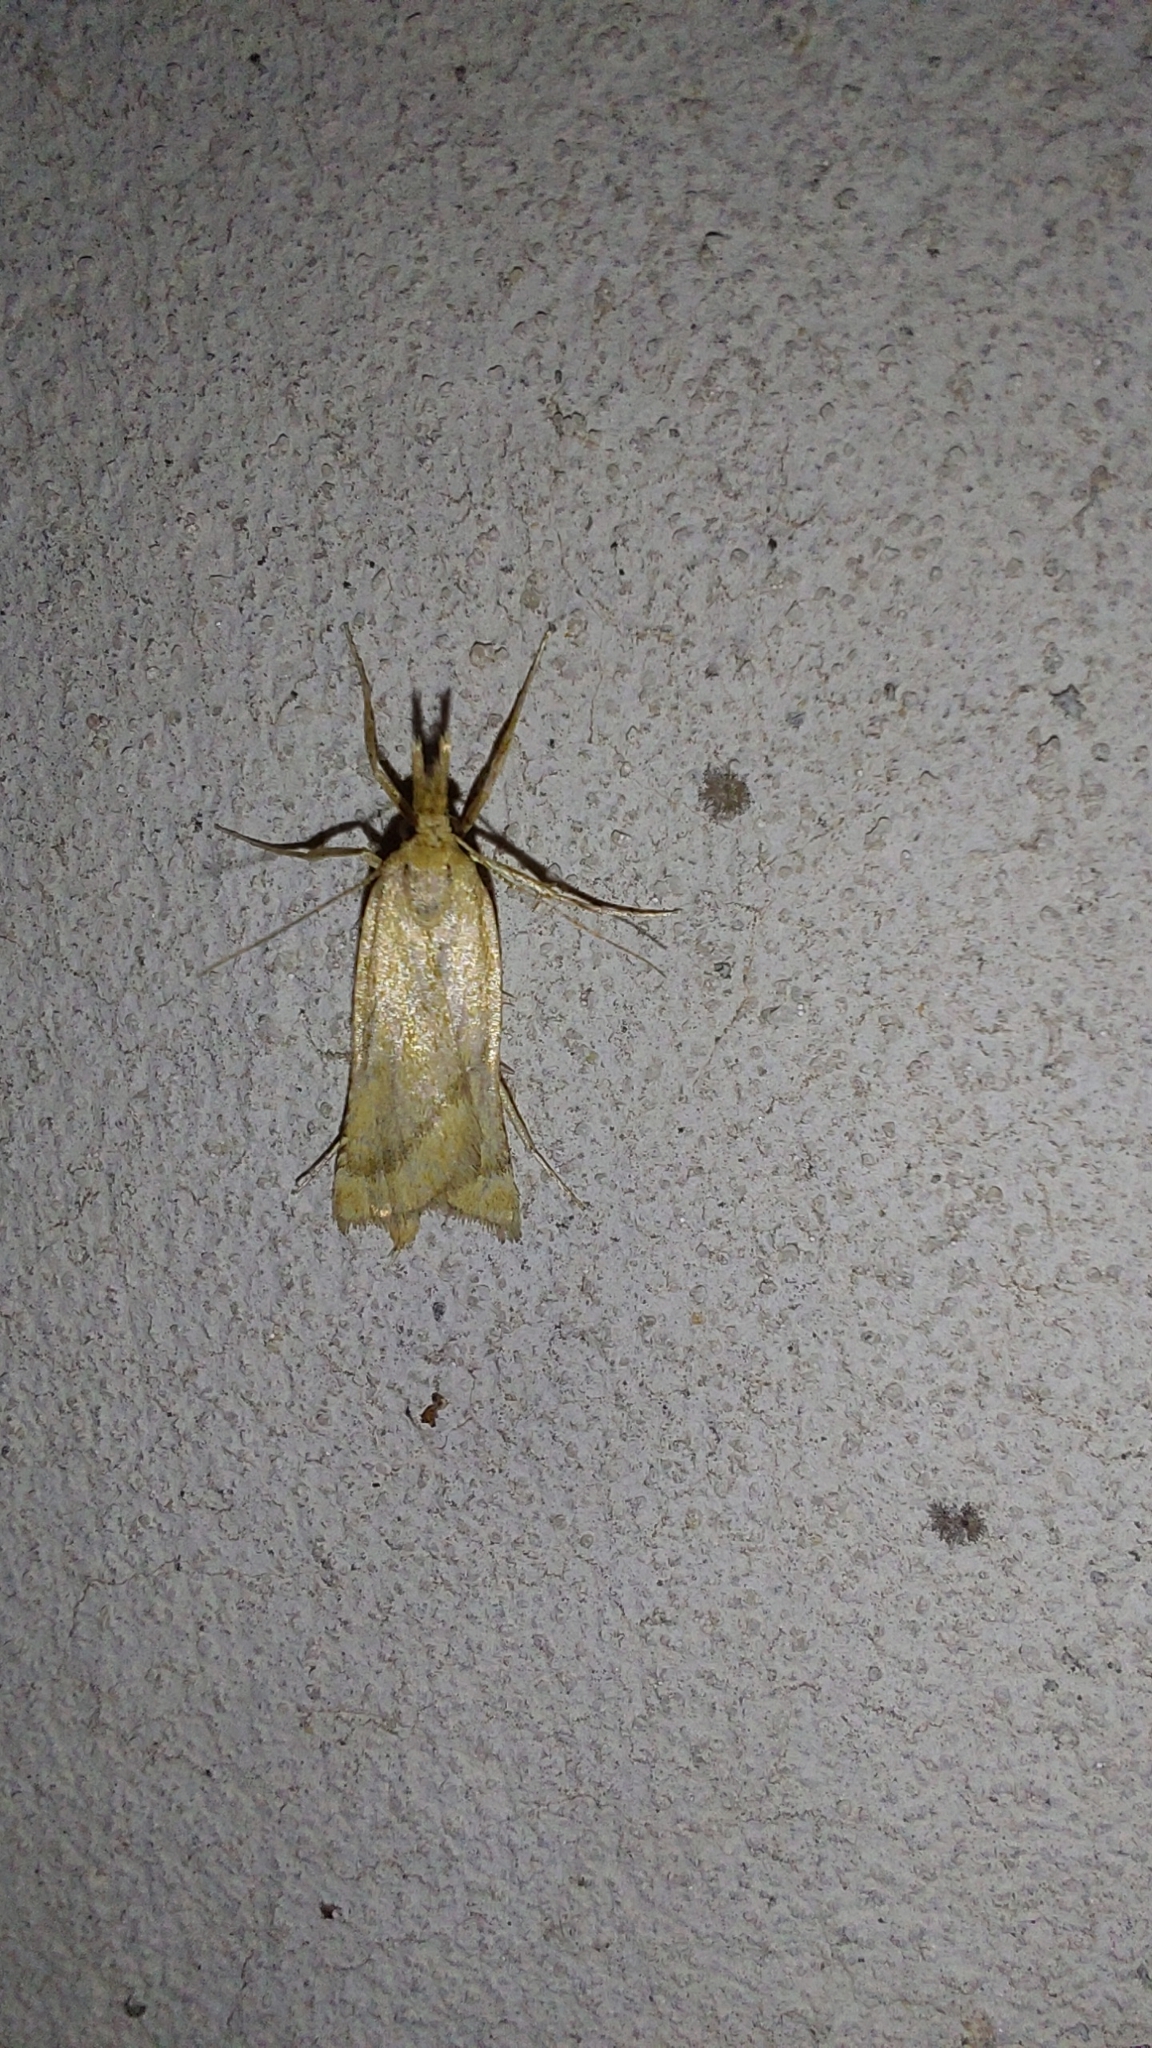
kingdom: Animalia
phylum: Arthropoda
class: Insecta
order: Lepidoptera
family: Pyralidae
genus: Synaphe
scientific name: Synaphe punctalis
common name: Long-legged tabby
